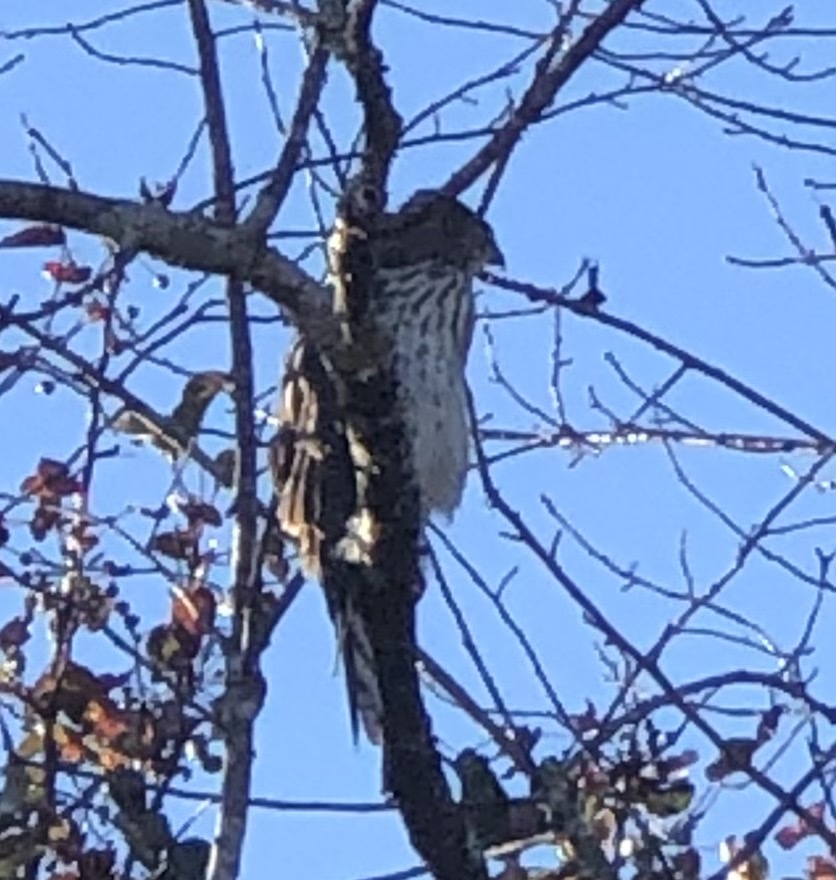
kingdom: Animalia
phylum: Chordata
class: Aves
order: Accipitriformes
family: Accipitridae
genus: Accipiter
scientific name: Accipiter cooperii
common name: Cooper's hawk
